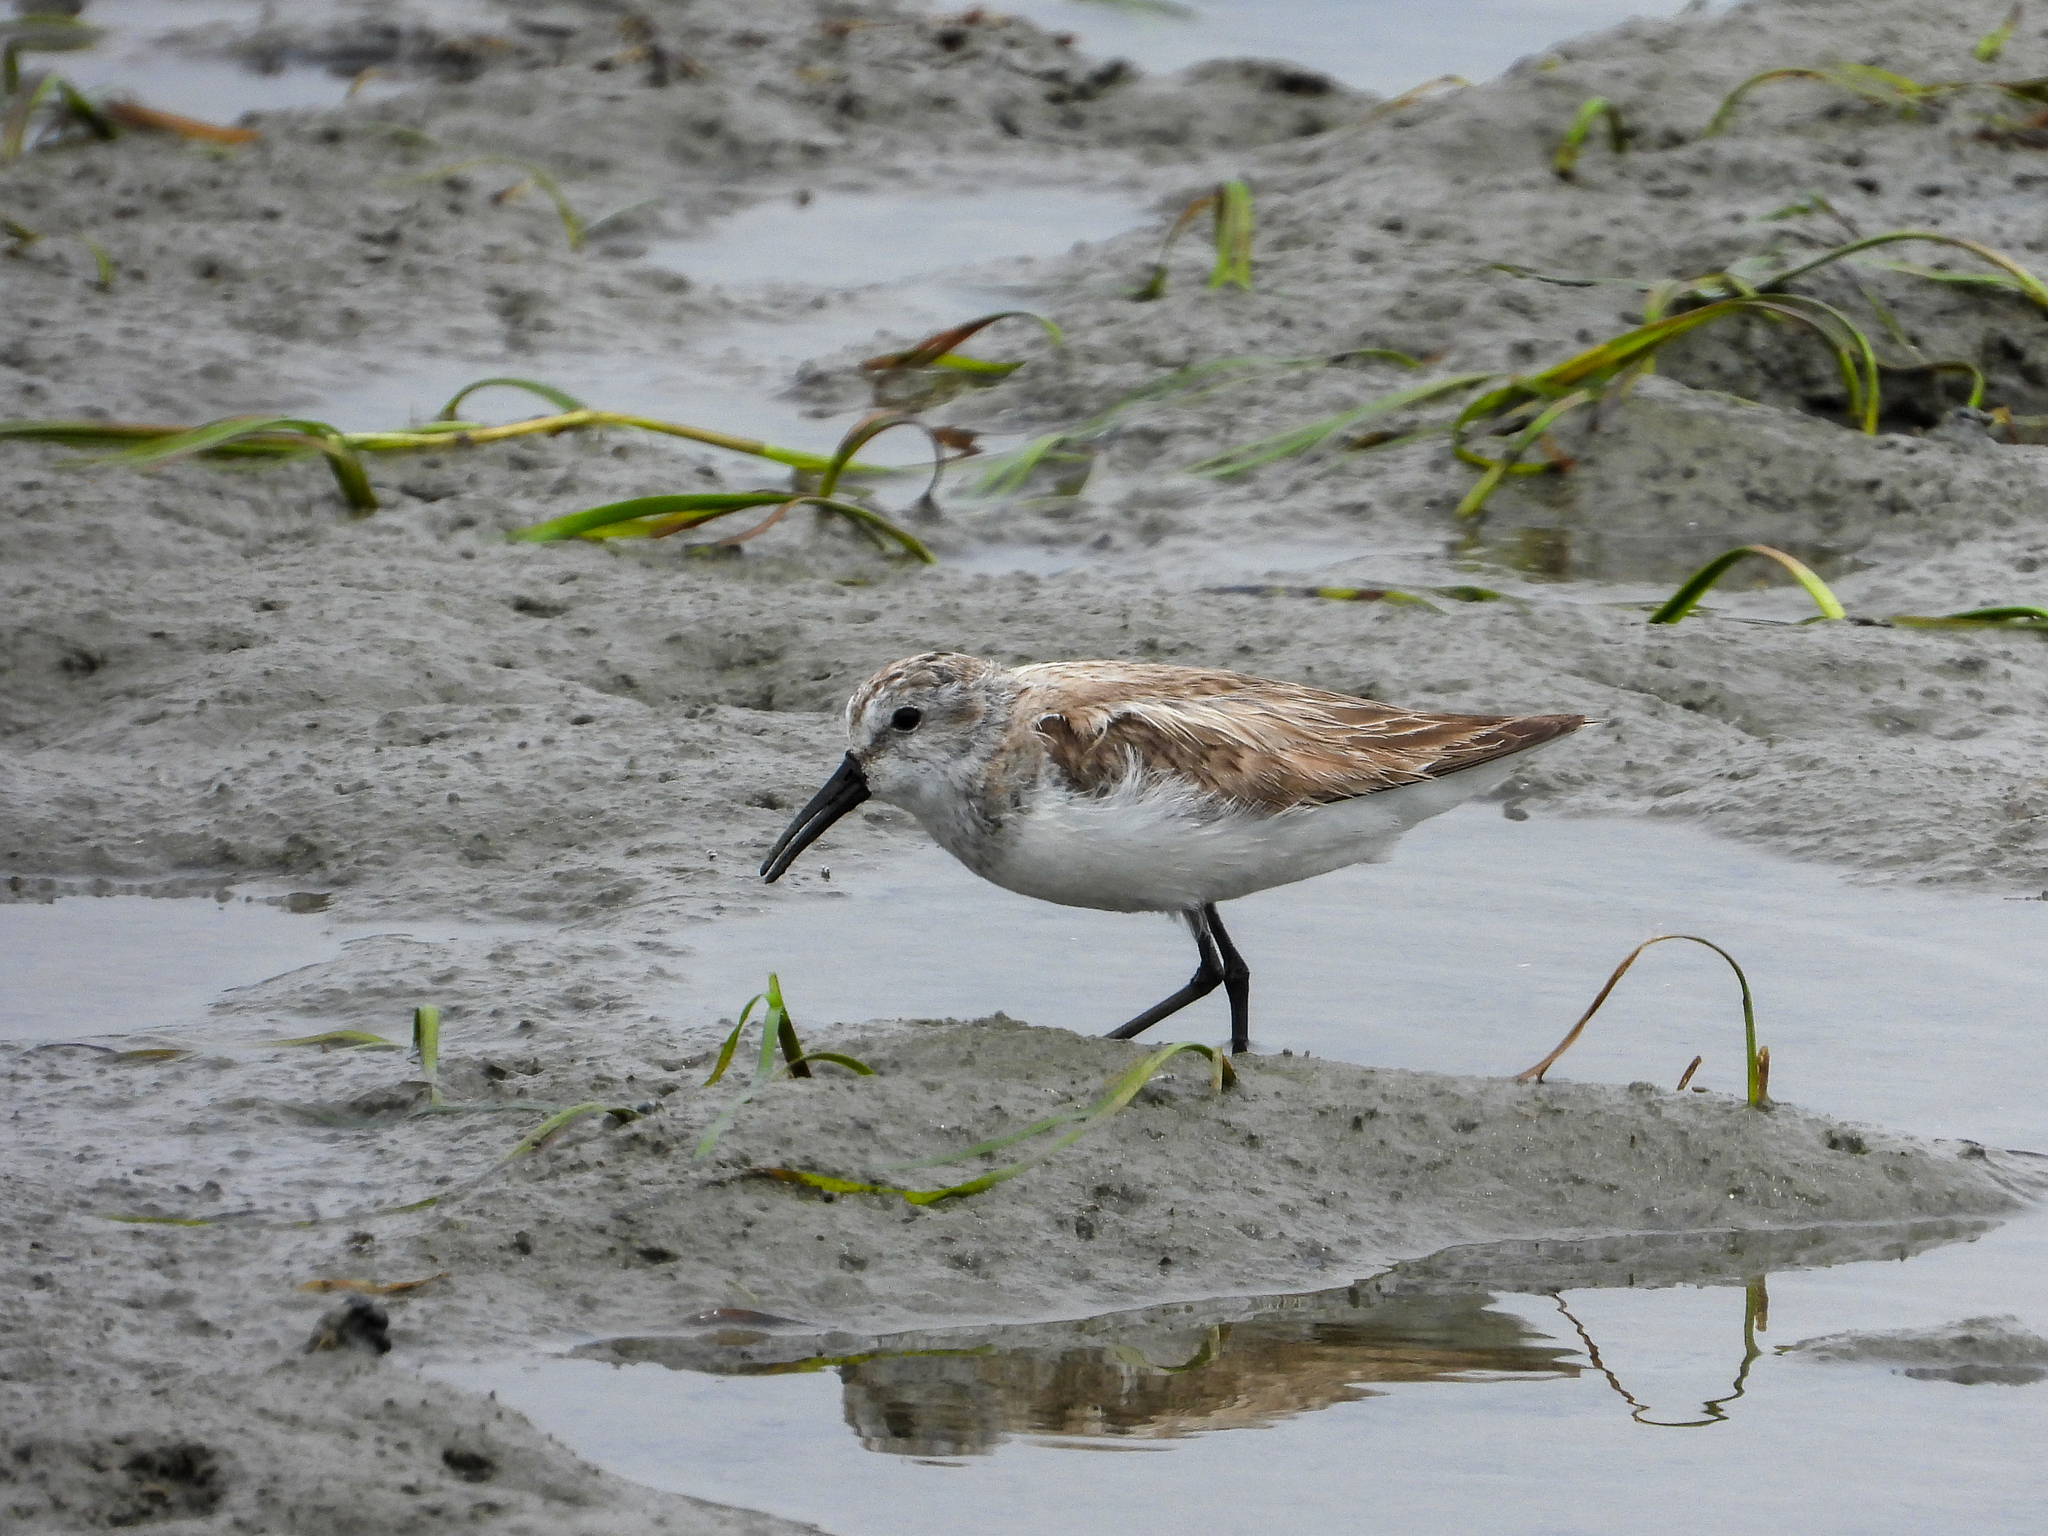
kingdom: Animalia
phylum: Chordata
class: Aves
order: Charadriiformes
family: Scolopacidae
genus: Calidris
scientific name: Calidris mauri
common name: Western sandpiper
